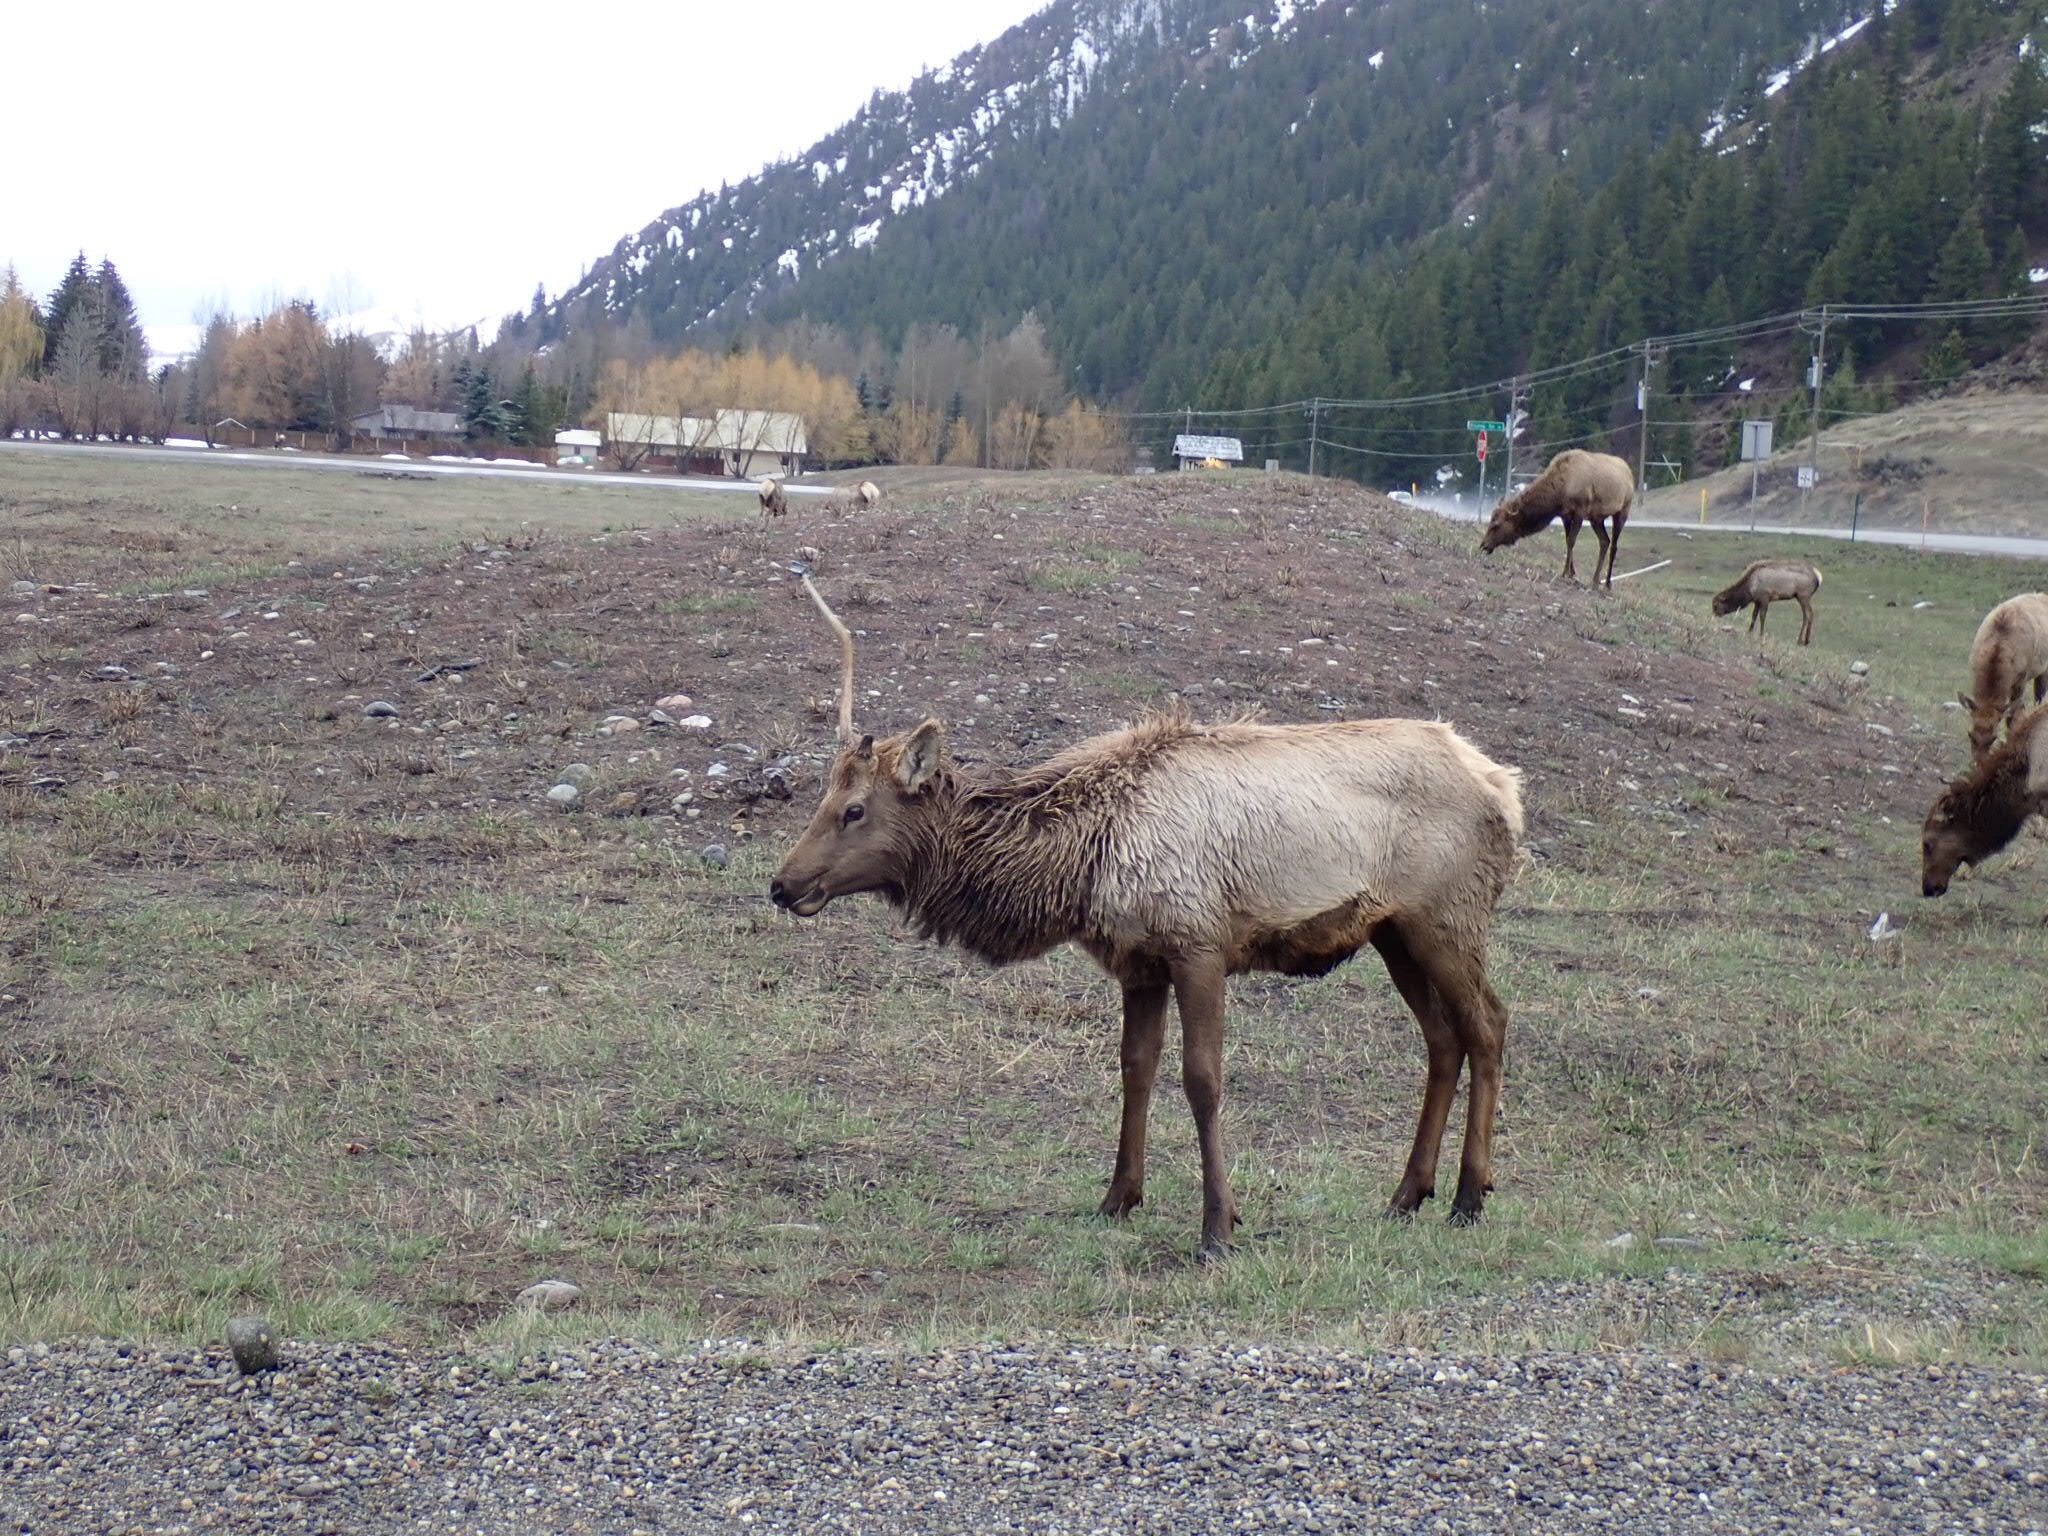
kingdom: Animalia
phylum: Chordata
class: Mammalia
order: Artiodactyla
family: Cervidae
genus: Cervus
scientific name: Cervus elaphus
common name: Red deer
